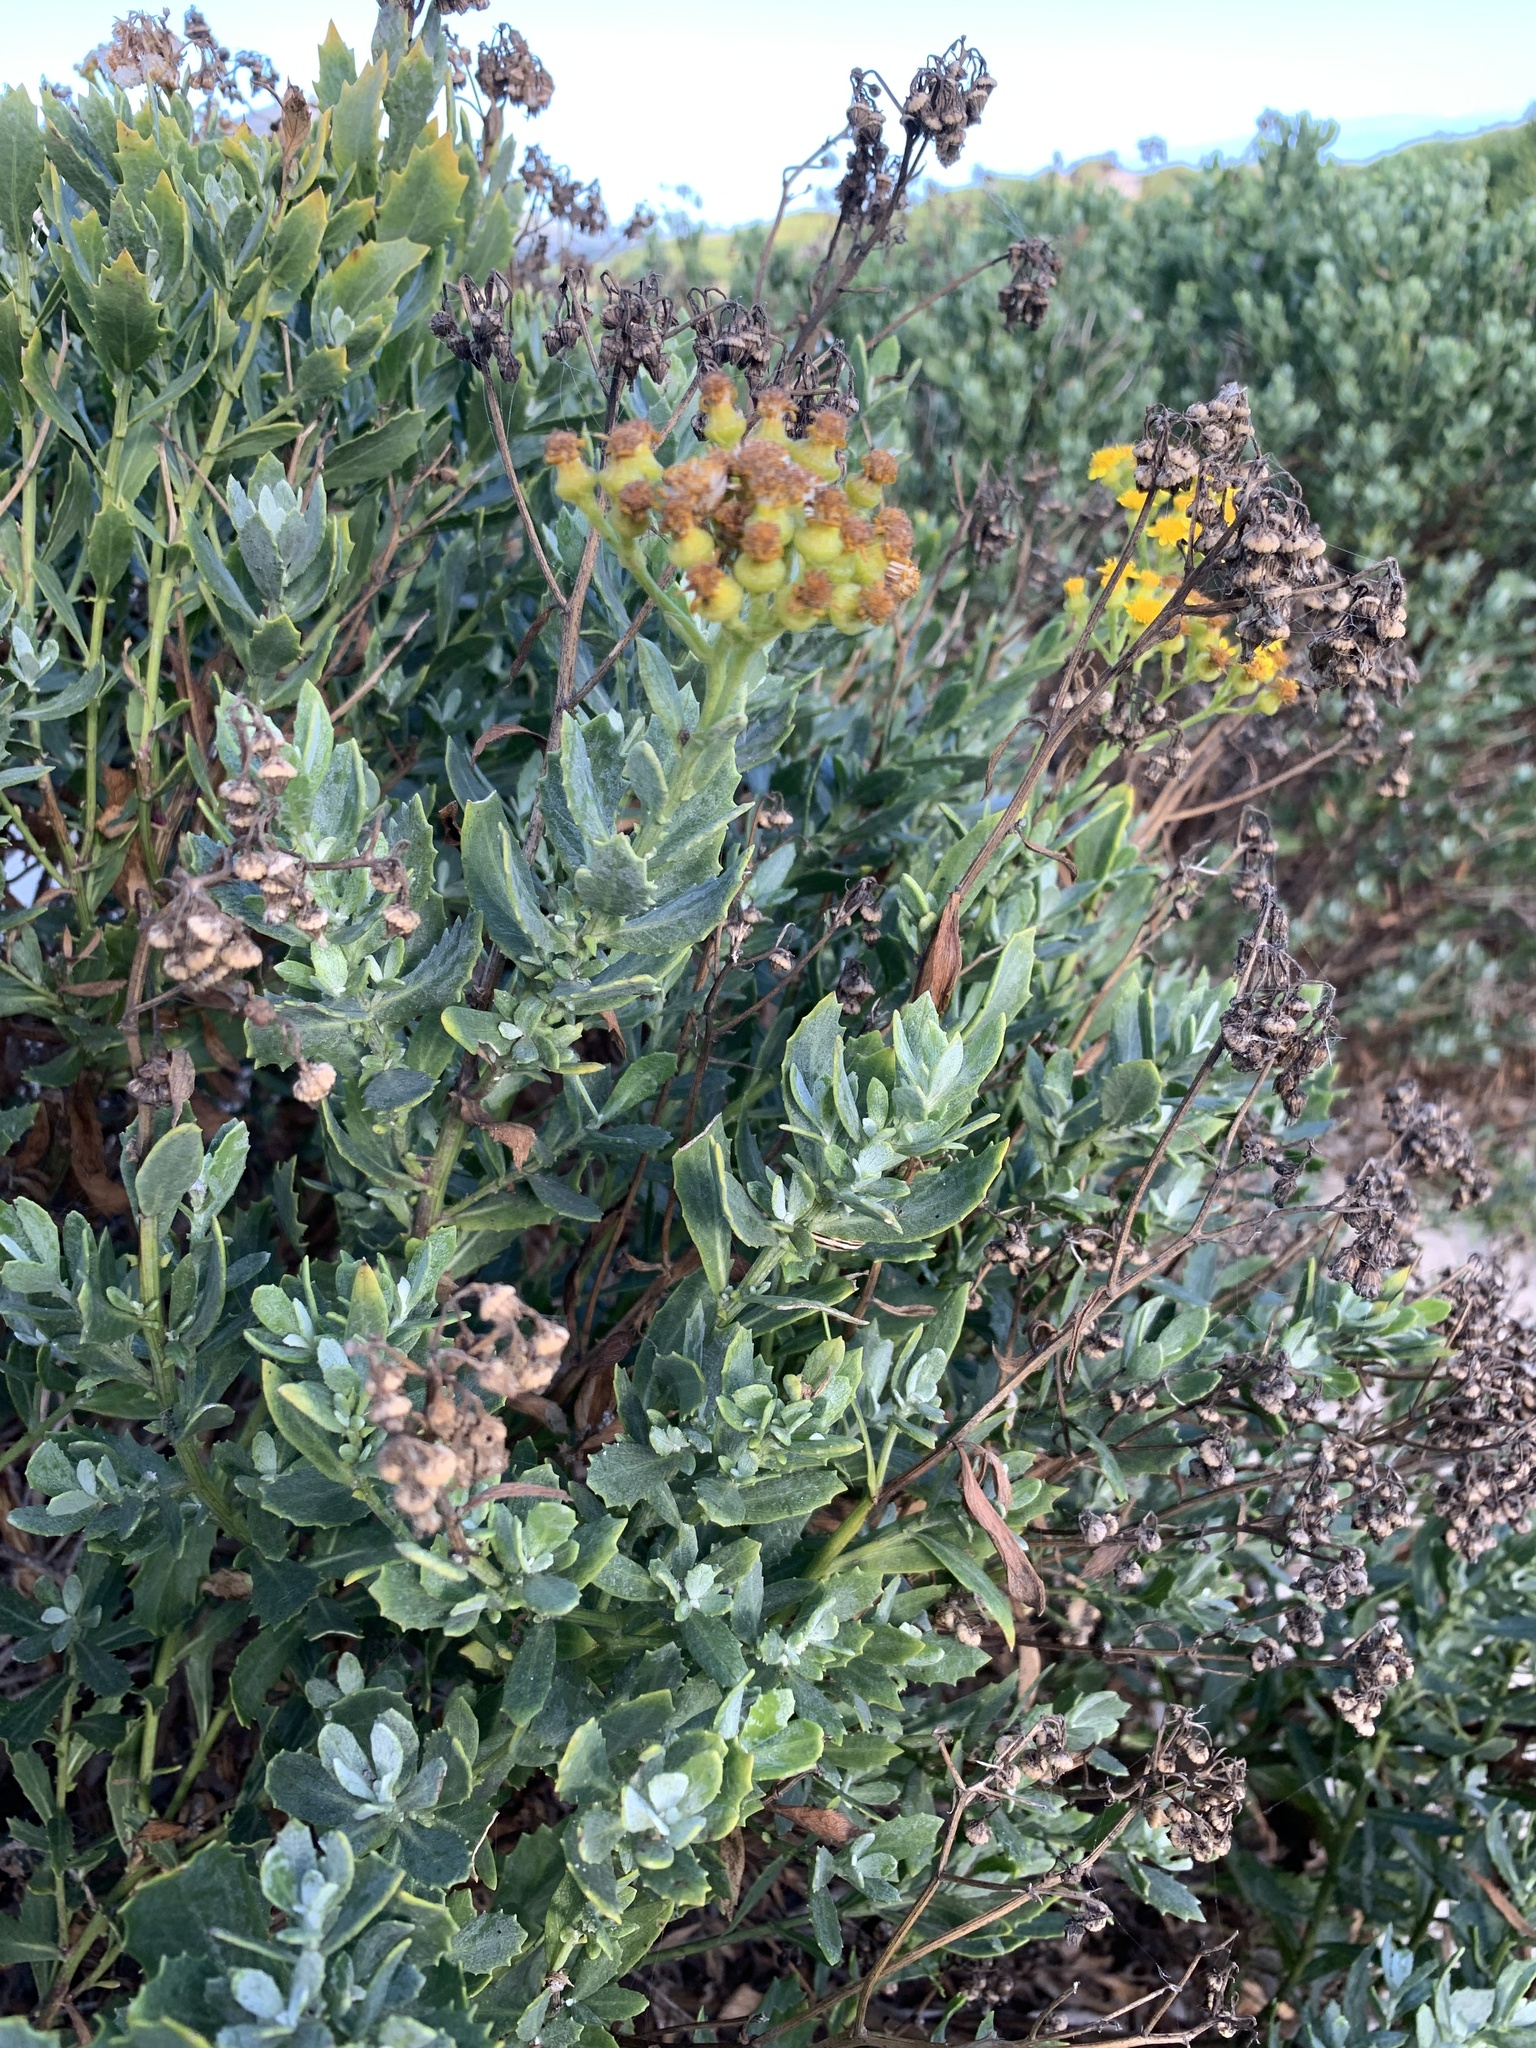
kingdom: Plantae
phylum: Tracheophyta
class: Magnoliopsida
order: Asterales
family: Asteraceae
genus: Senecio
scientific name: Senecio halimifolius
